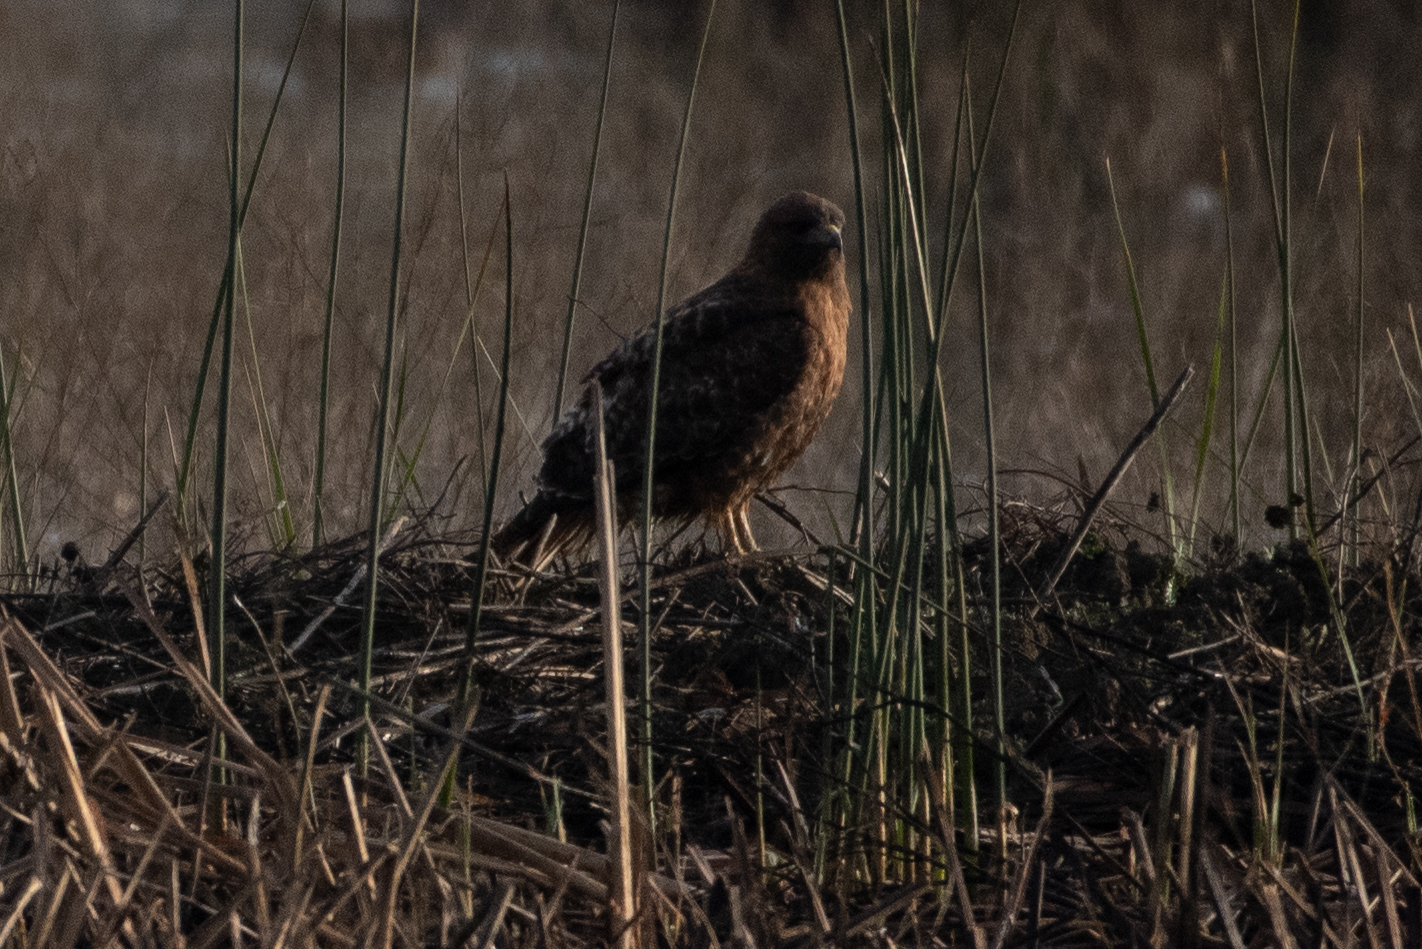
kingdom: Animalia
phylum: Chordata
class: Aves
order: Accipitriformes
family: Accipitridae
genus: Buteo
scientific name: Buteo jamaicensis
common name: Red-tailed hawk
